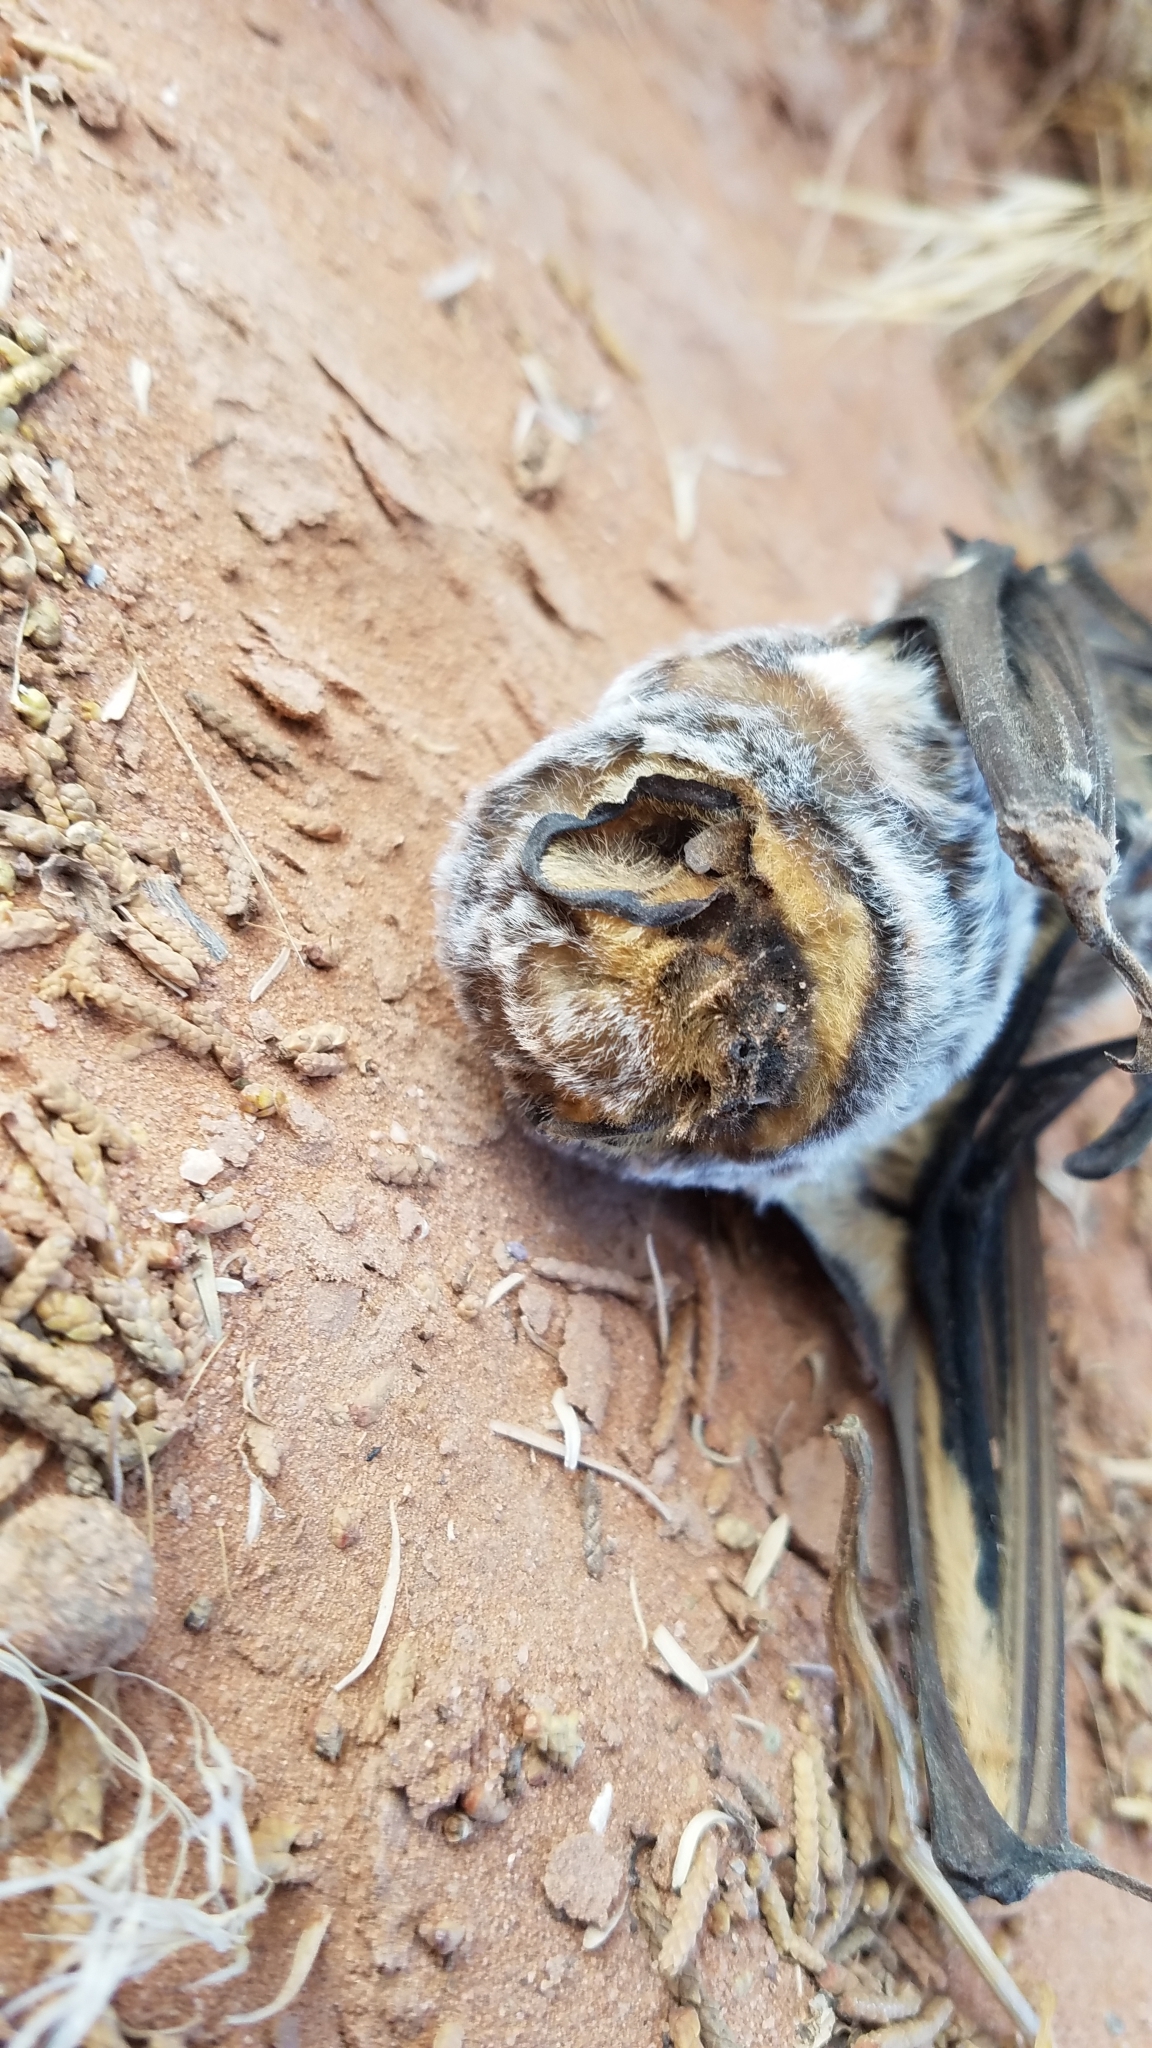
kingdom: Animalia
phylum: Chordata
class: Mammalia
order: Chiroptera
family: Vespertilionidae
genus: Aeorestes
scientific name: Aeorestes cinereus
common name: North american hoary bat
